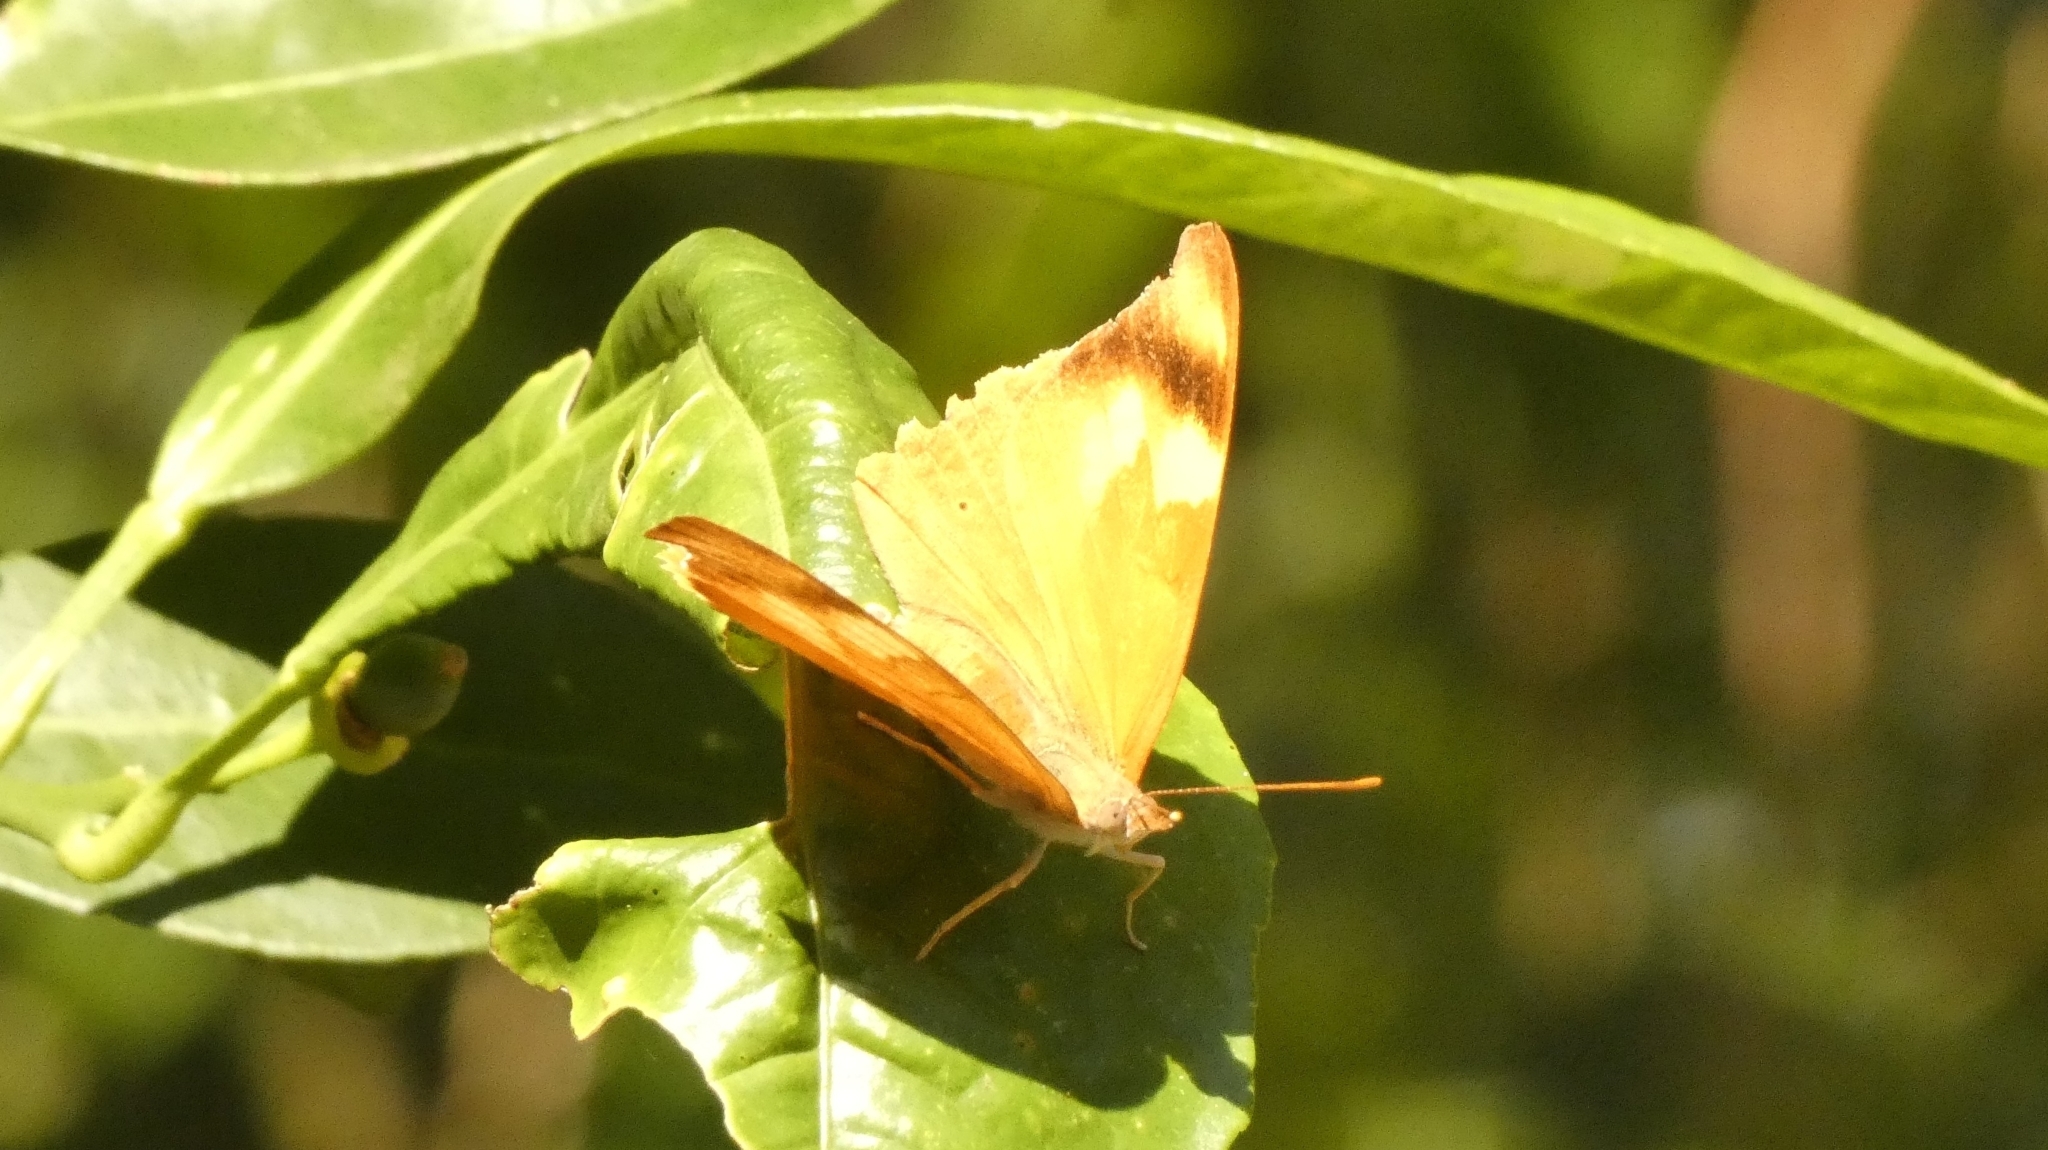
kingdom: Animalia
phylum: Arthropoda
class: Insecta
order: Lepidoptera
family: Nymphalidae
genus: Temenis
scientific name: Temenis laothoe
